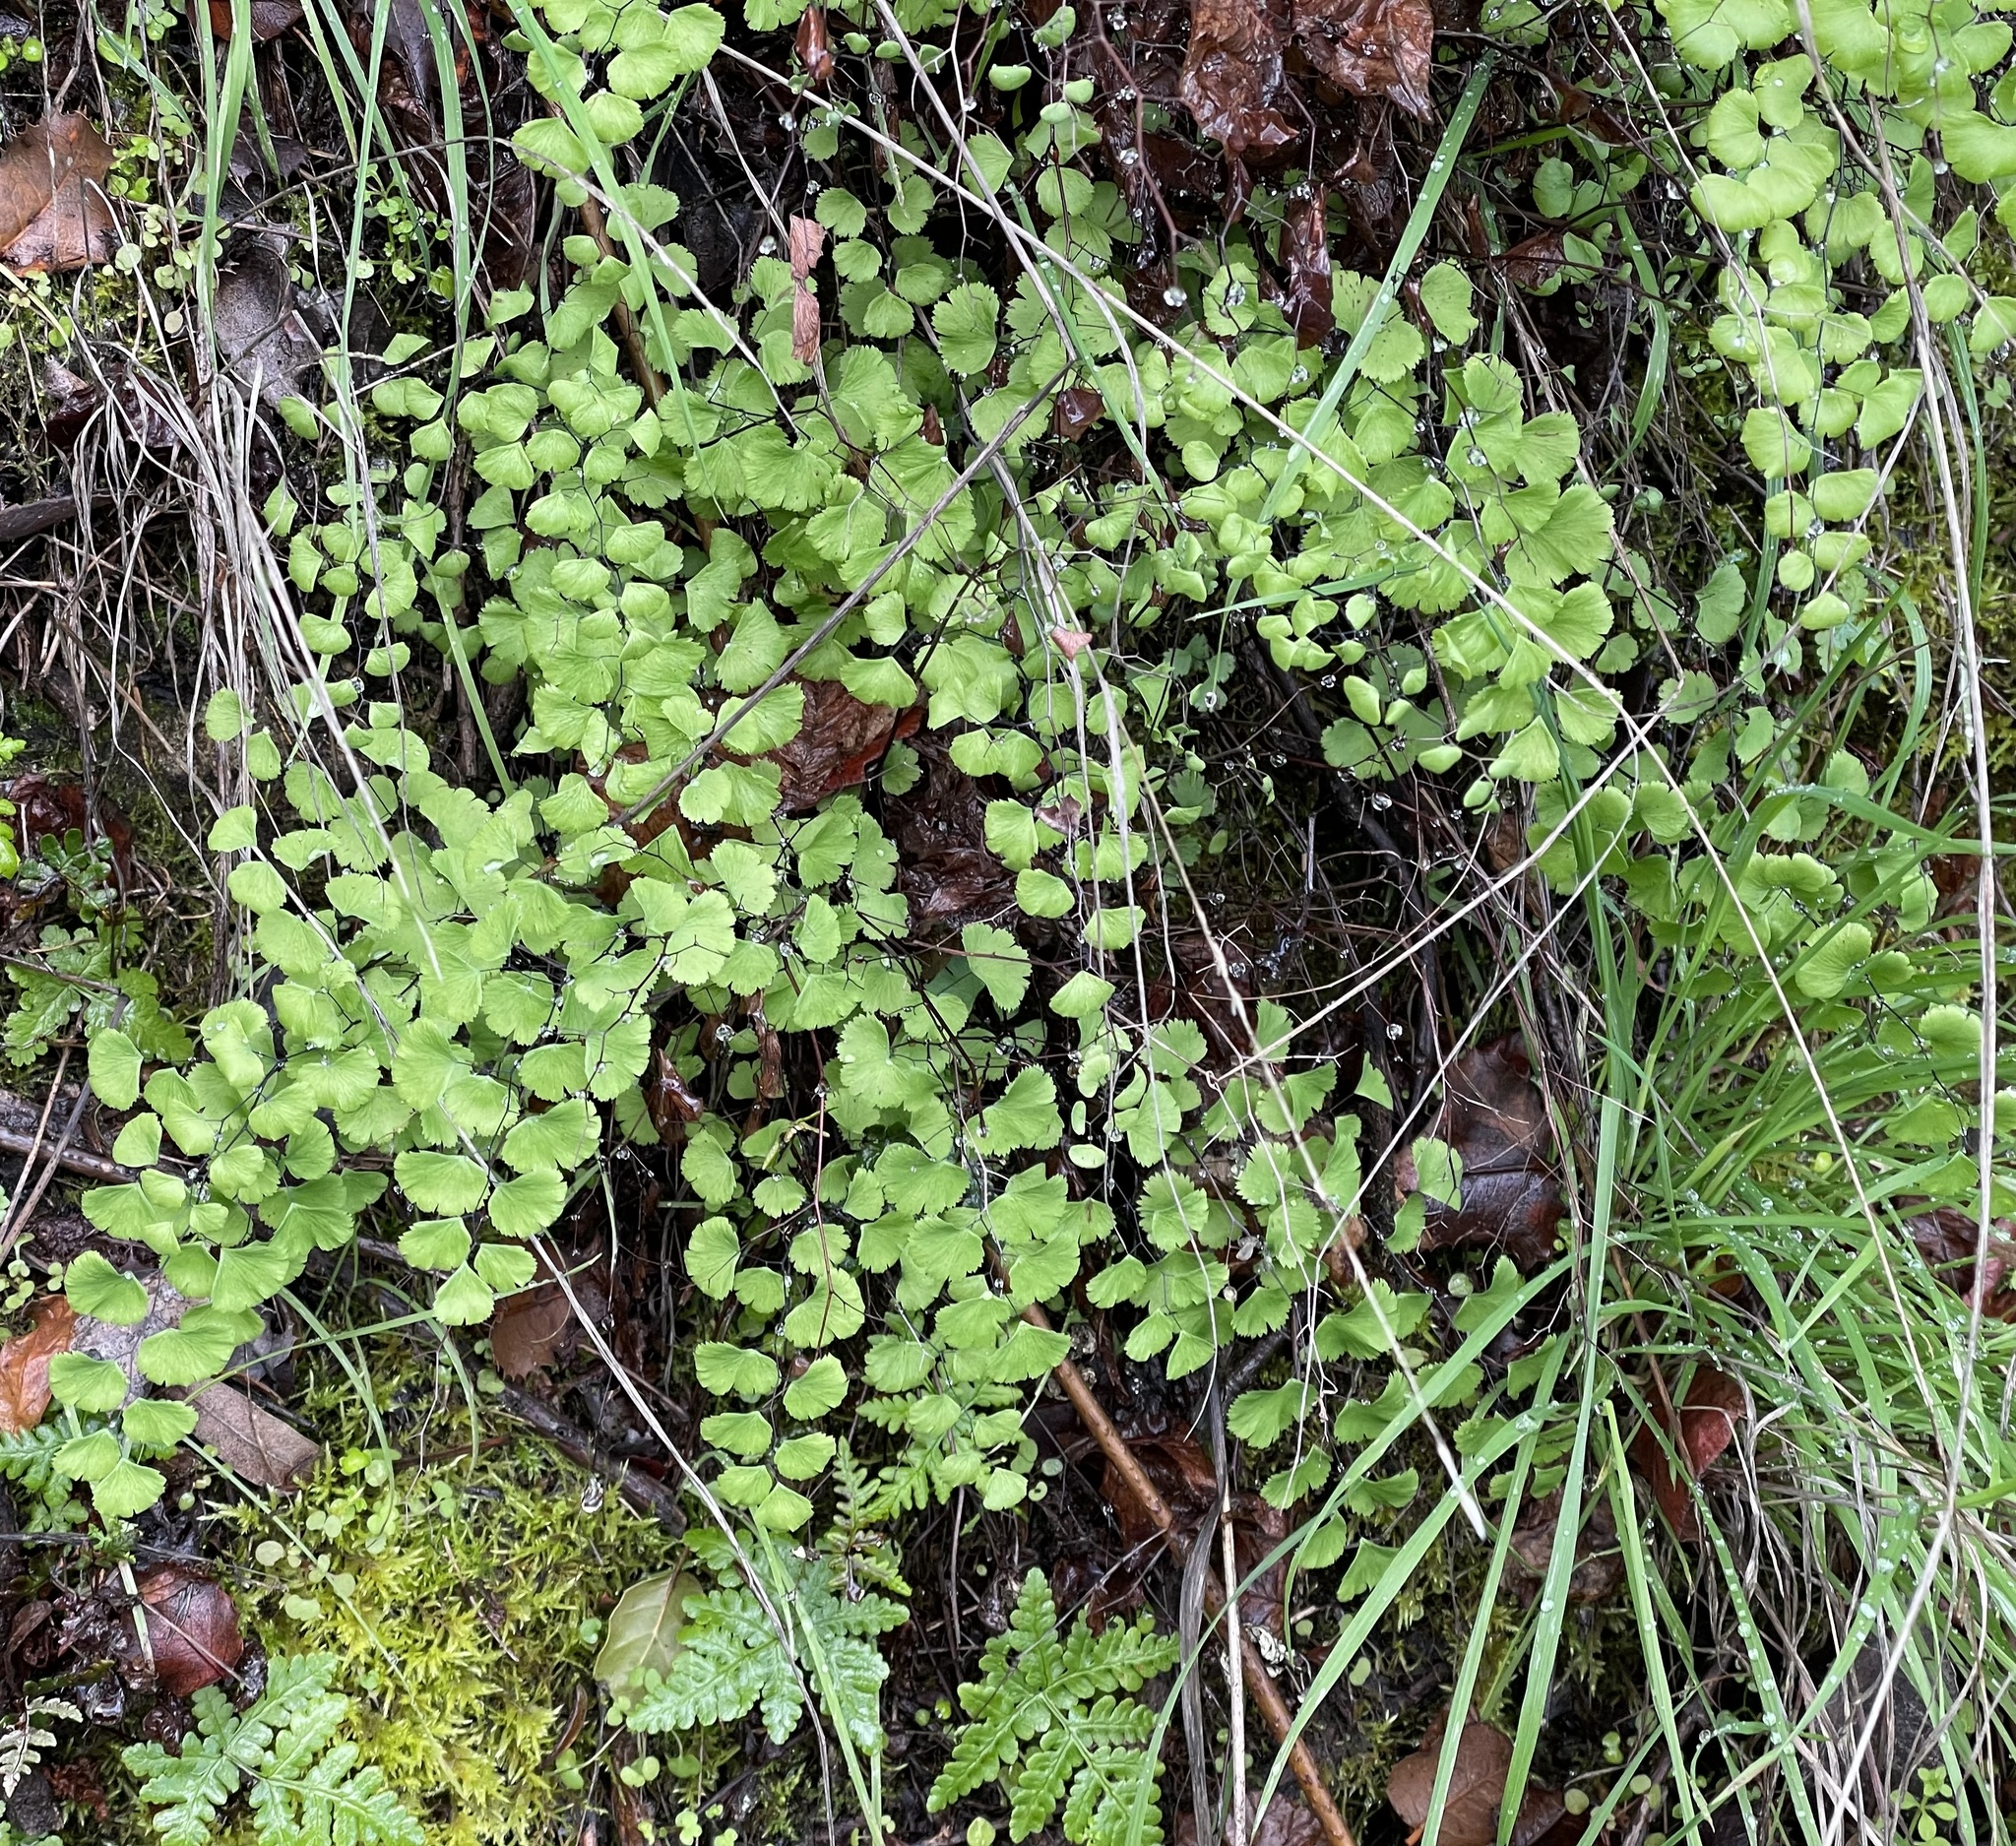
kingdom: Plantae
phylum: Tracheophyta
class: Polypodiopsida
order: Polypodiales
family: Pteridaceae
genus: Adiantum
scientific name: Adiantum jordanii
